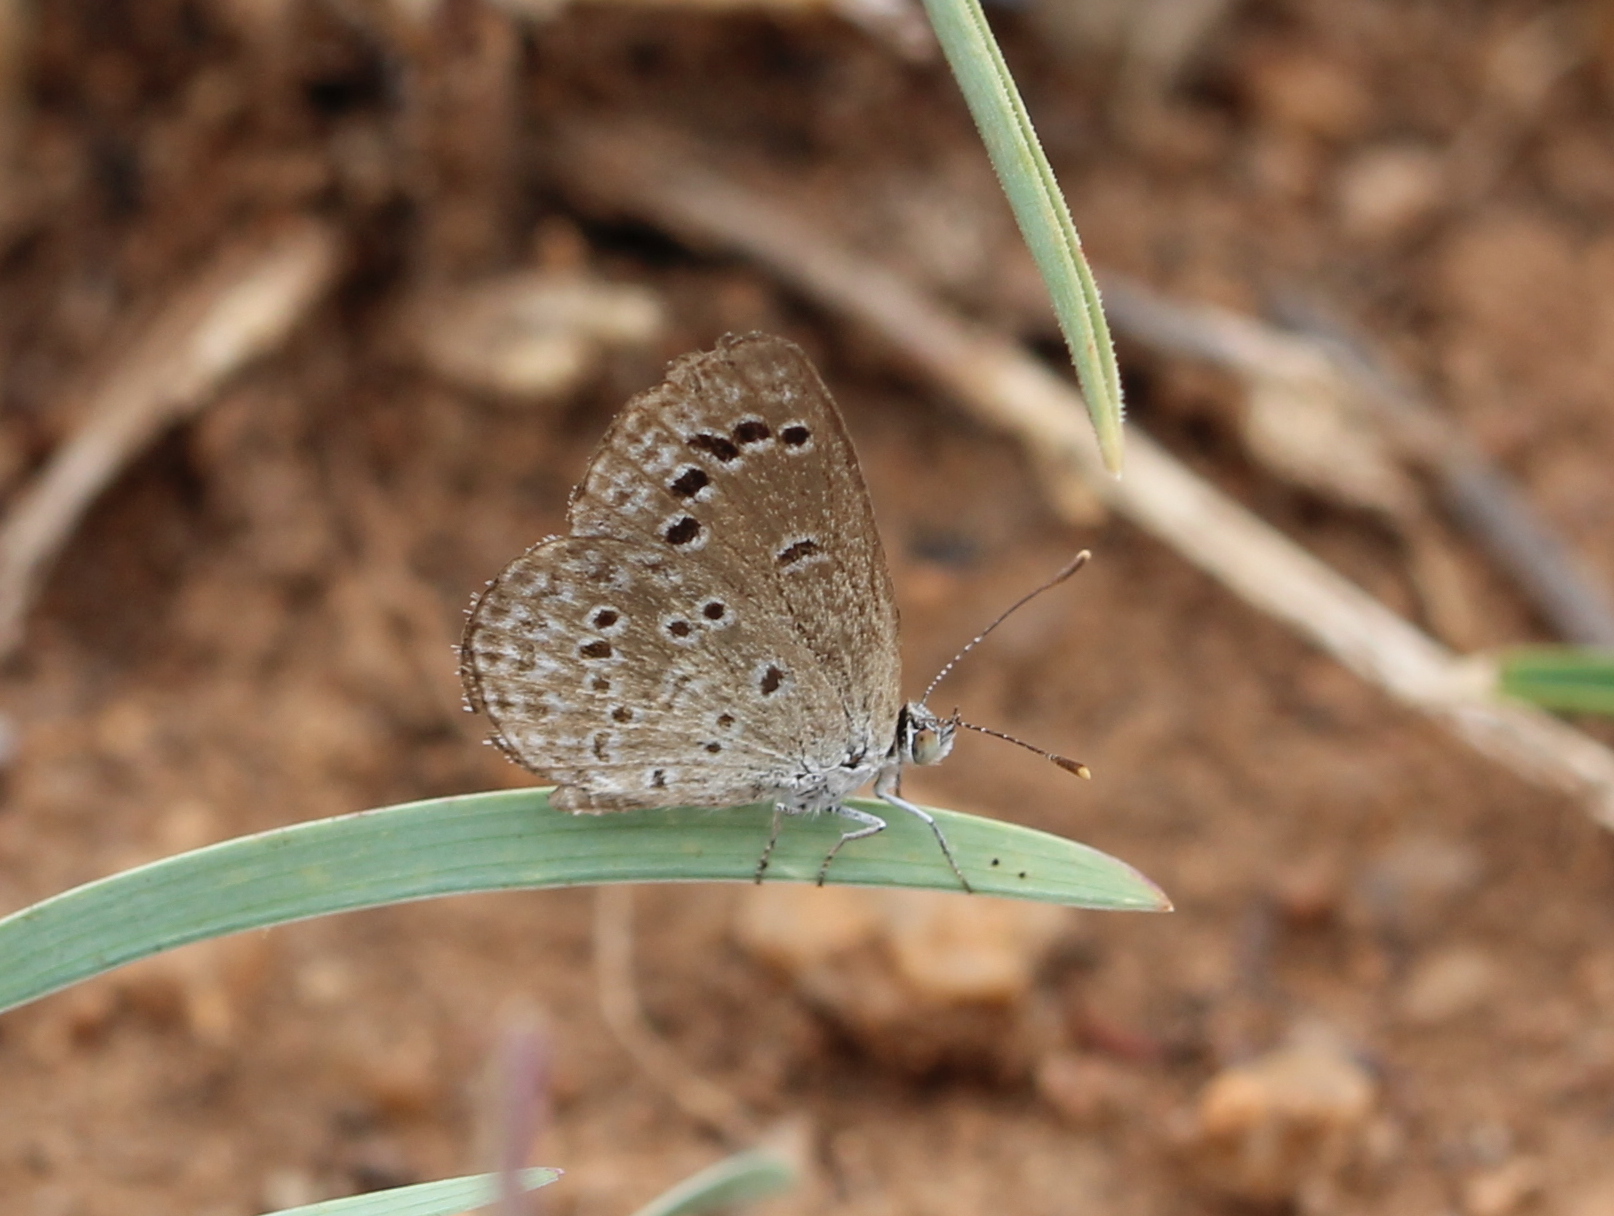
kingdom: Animalia
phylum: Arthropoda
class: Insecta
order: Lepidoptera
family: Lycaenidae
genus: Zizina
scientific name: Zizina otis
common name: Lesser grass blue
